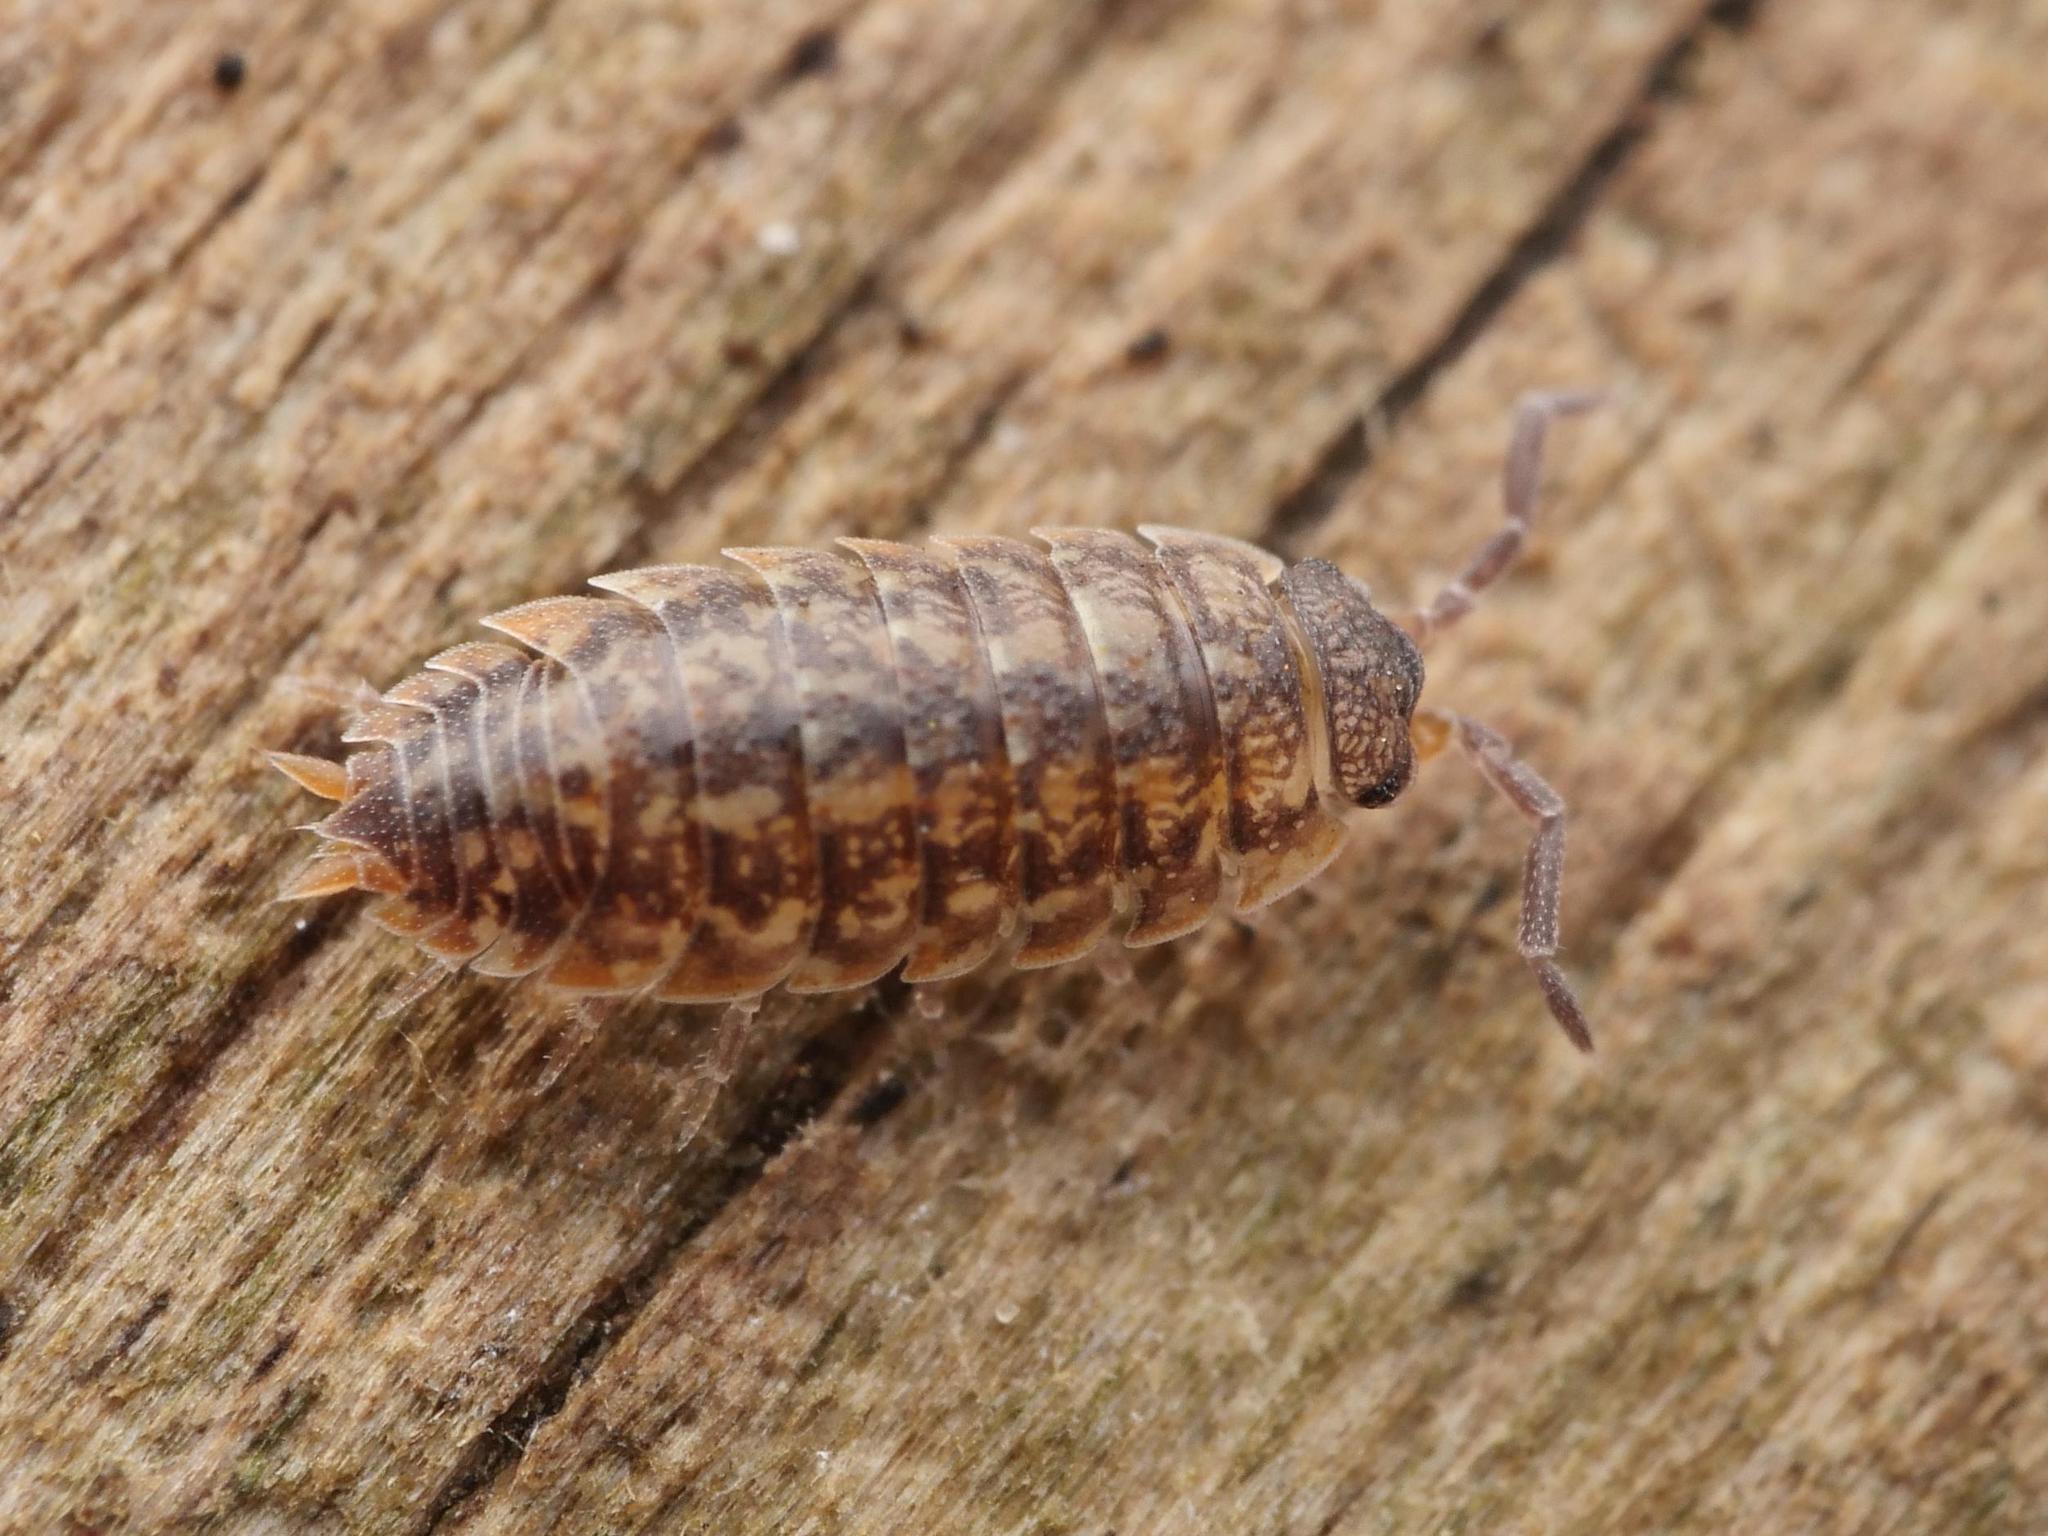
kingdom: Animalia
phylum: Arthropoda
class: Malacostraca
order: Isopoda
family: Porcellionidae
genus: Porcellio
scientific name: Porcellio scaber
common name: Common rough woodlouse
